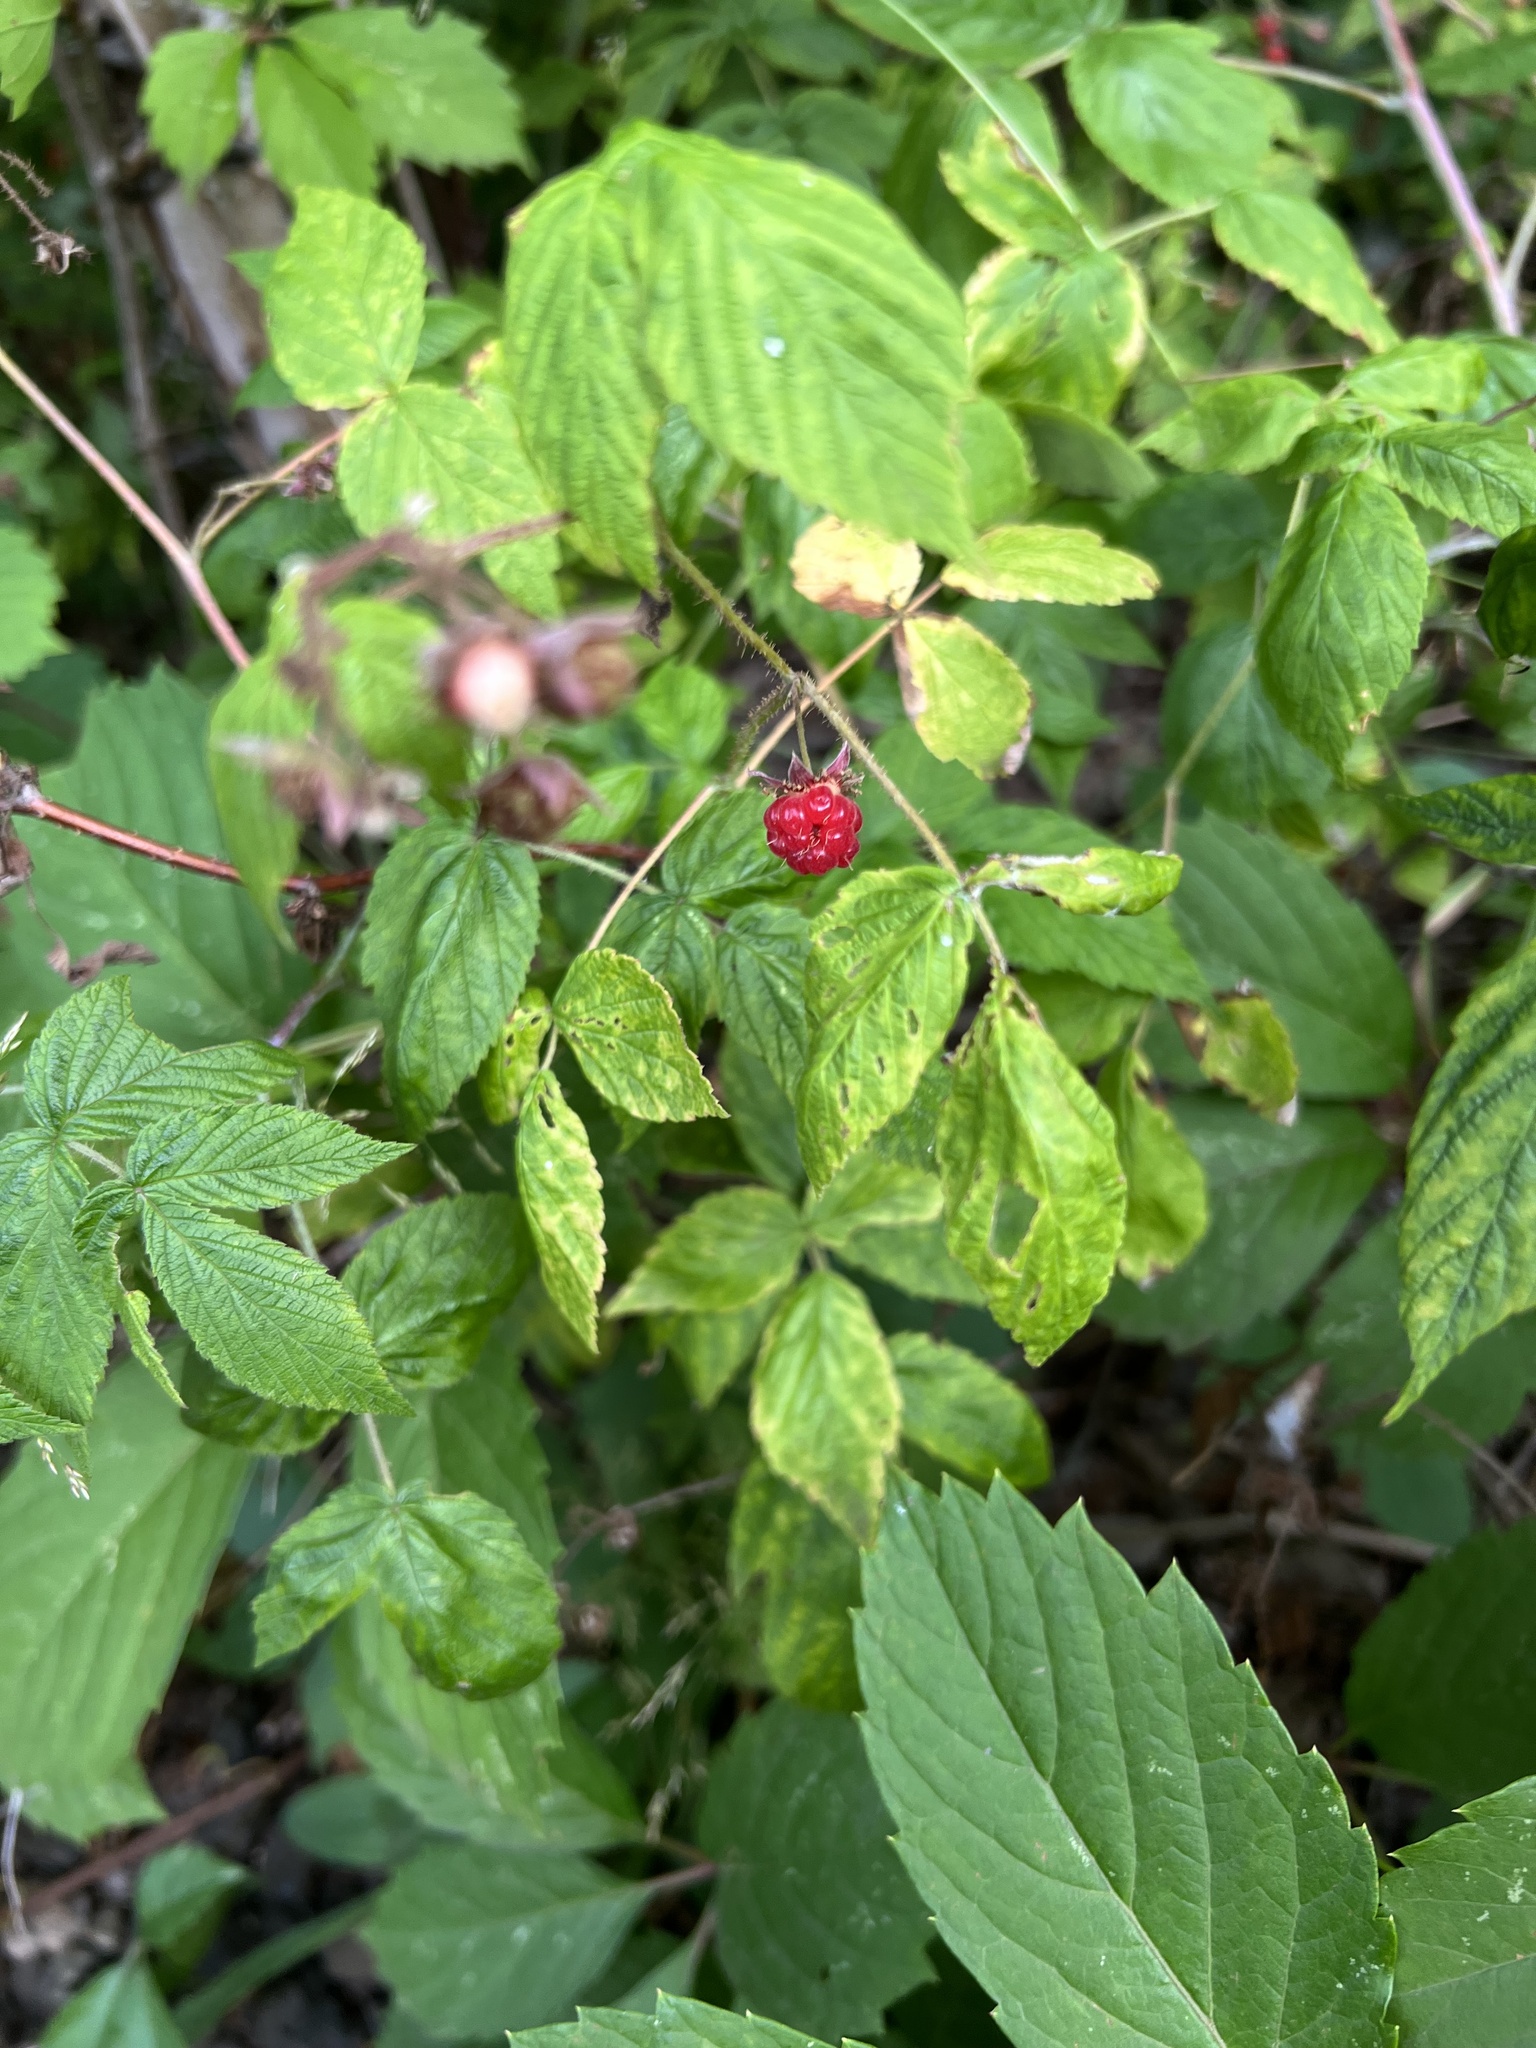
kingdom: Plantae
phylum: Tracheophyta
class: Magnoliopsida
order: Rosales
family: Rosaceae
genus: Rubus
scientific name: Rubus idaeus
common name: Raspberry
